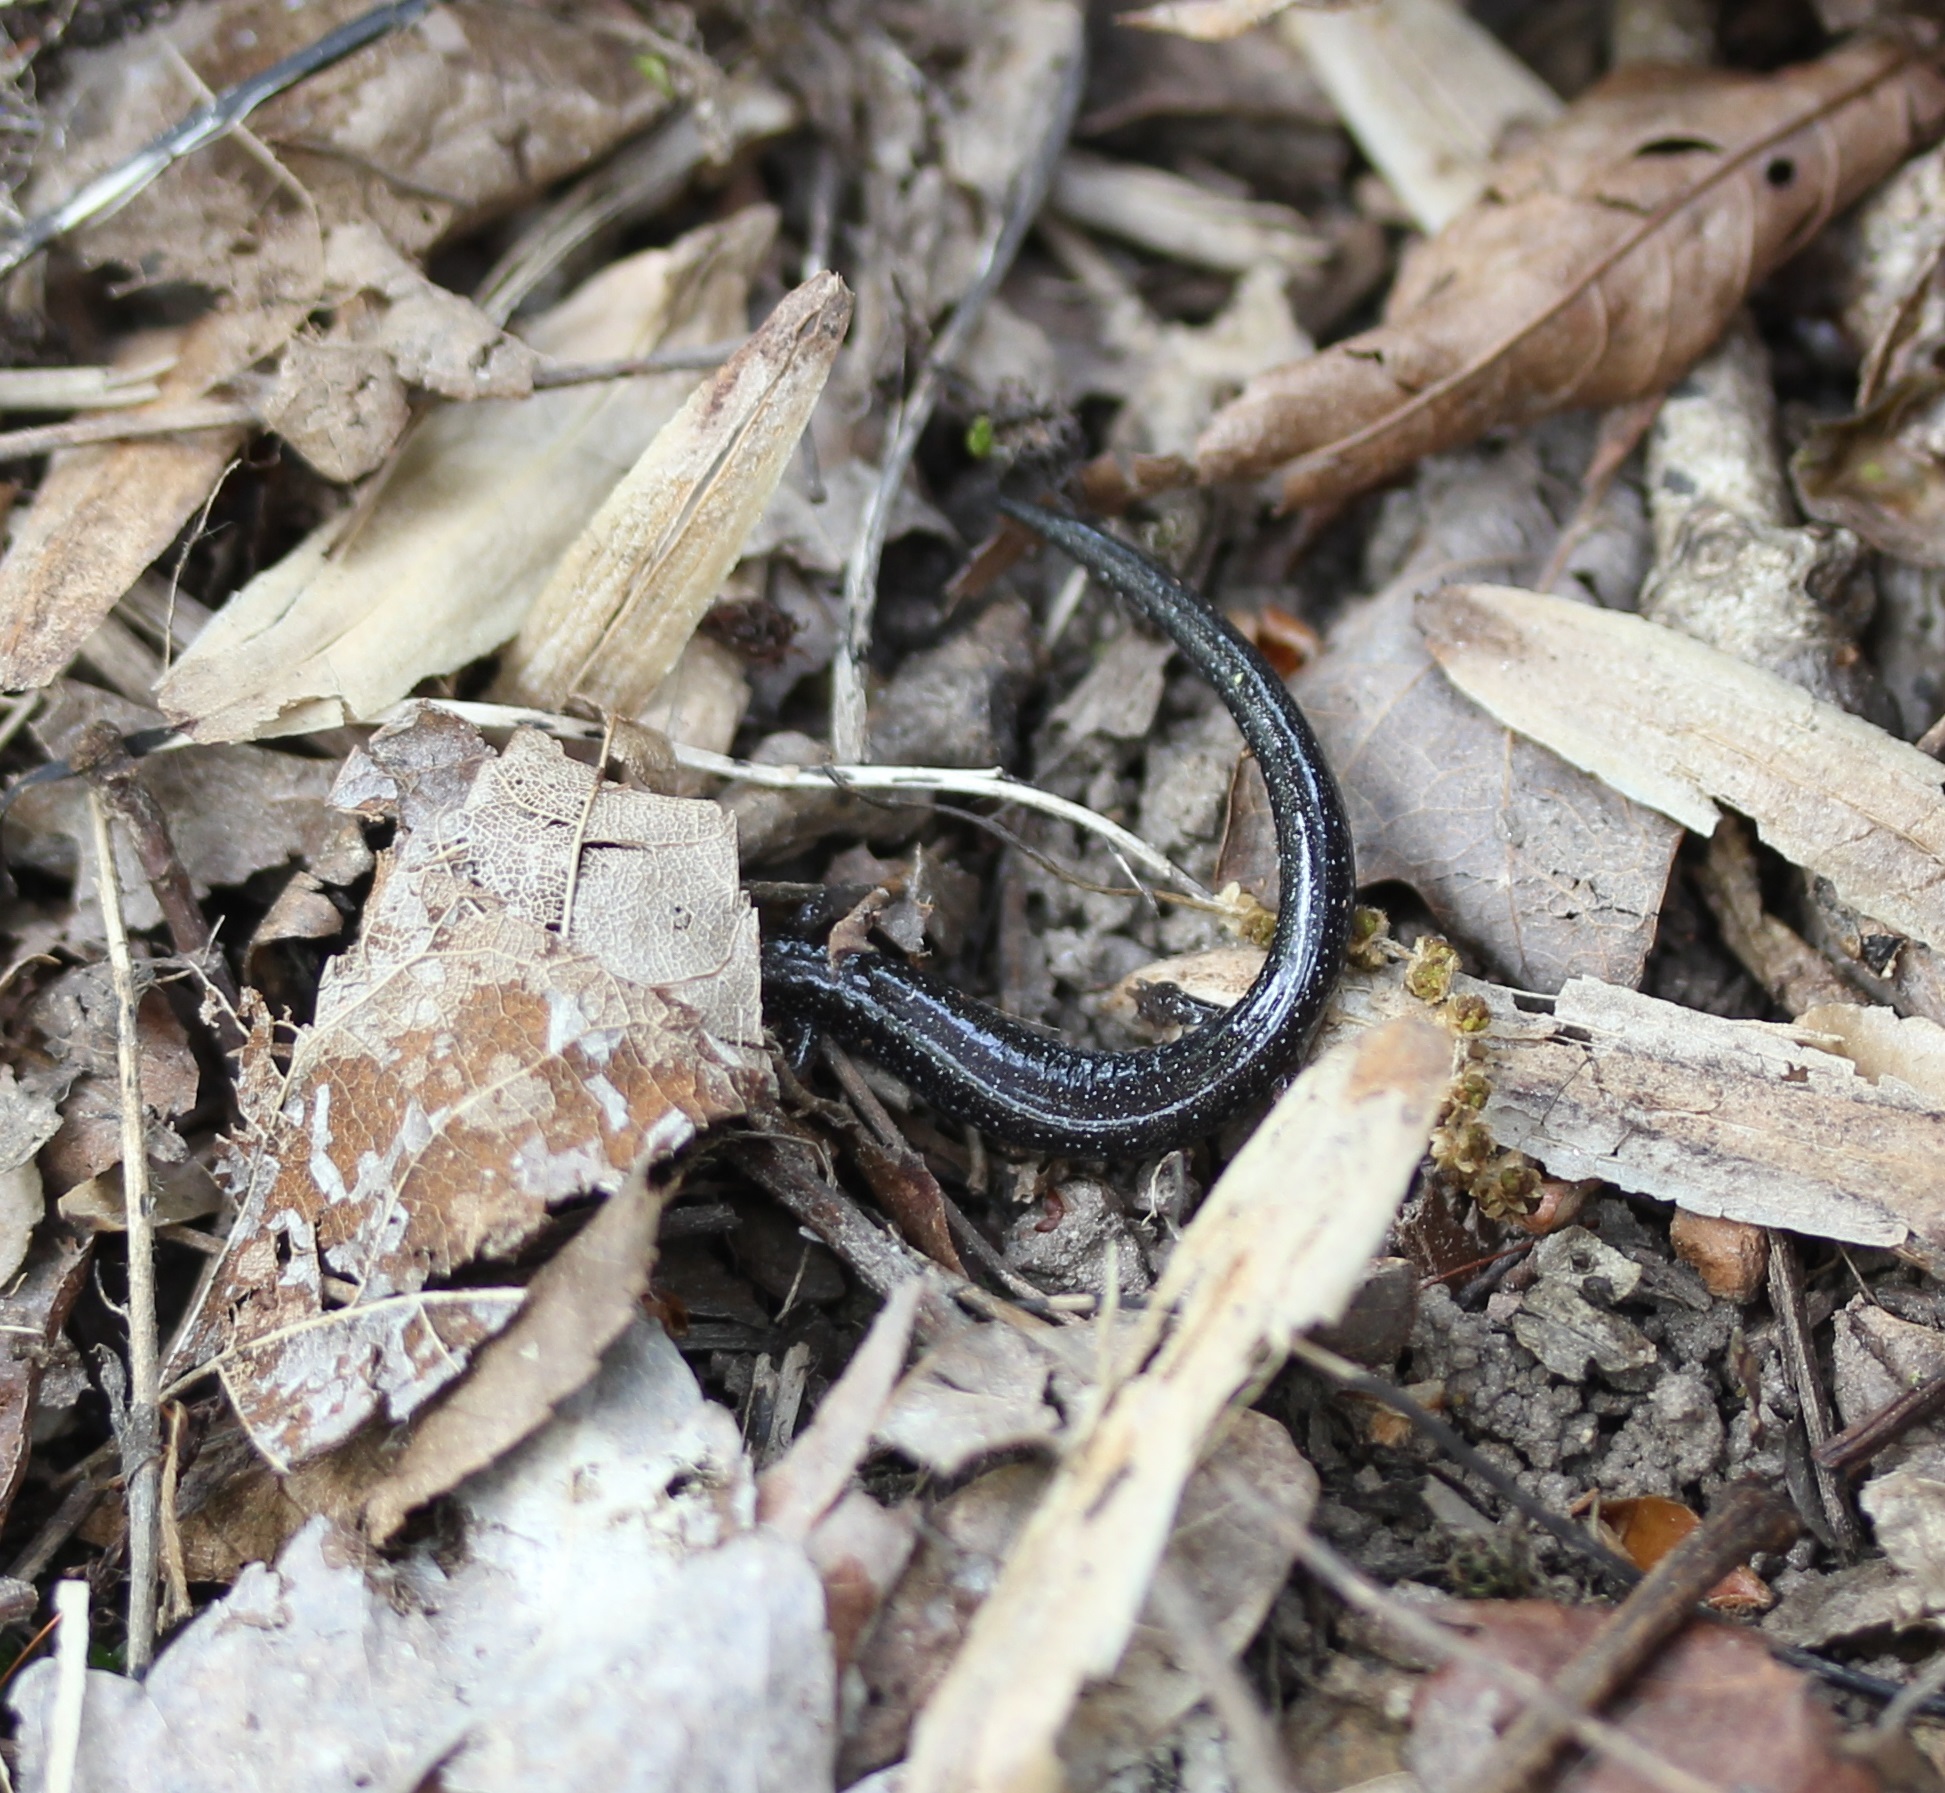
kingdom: Animalia
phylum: Chordata
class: Amphibia
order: Caudata
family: Plethodontidae
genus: Plethodon
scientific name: Plethodon cinereus
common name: Redback salamander
